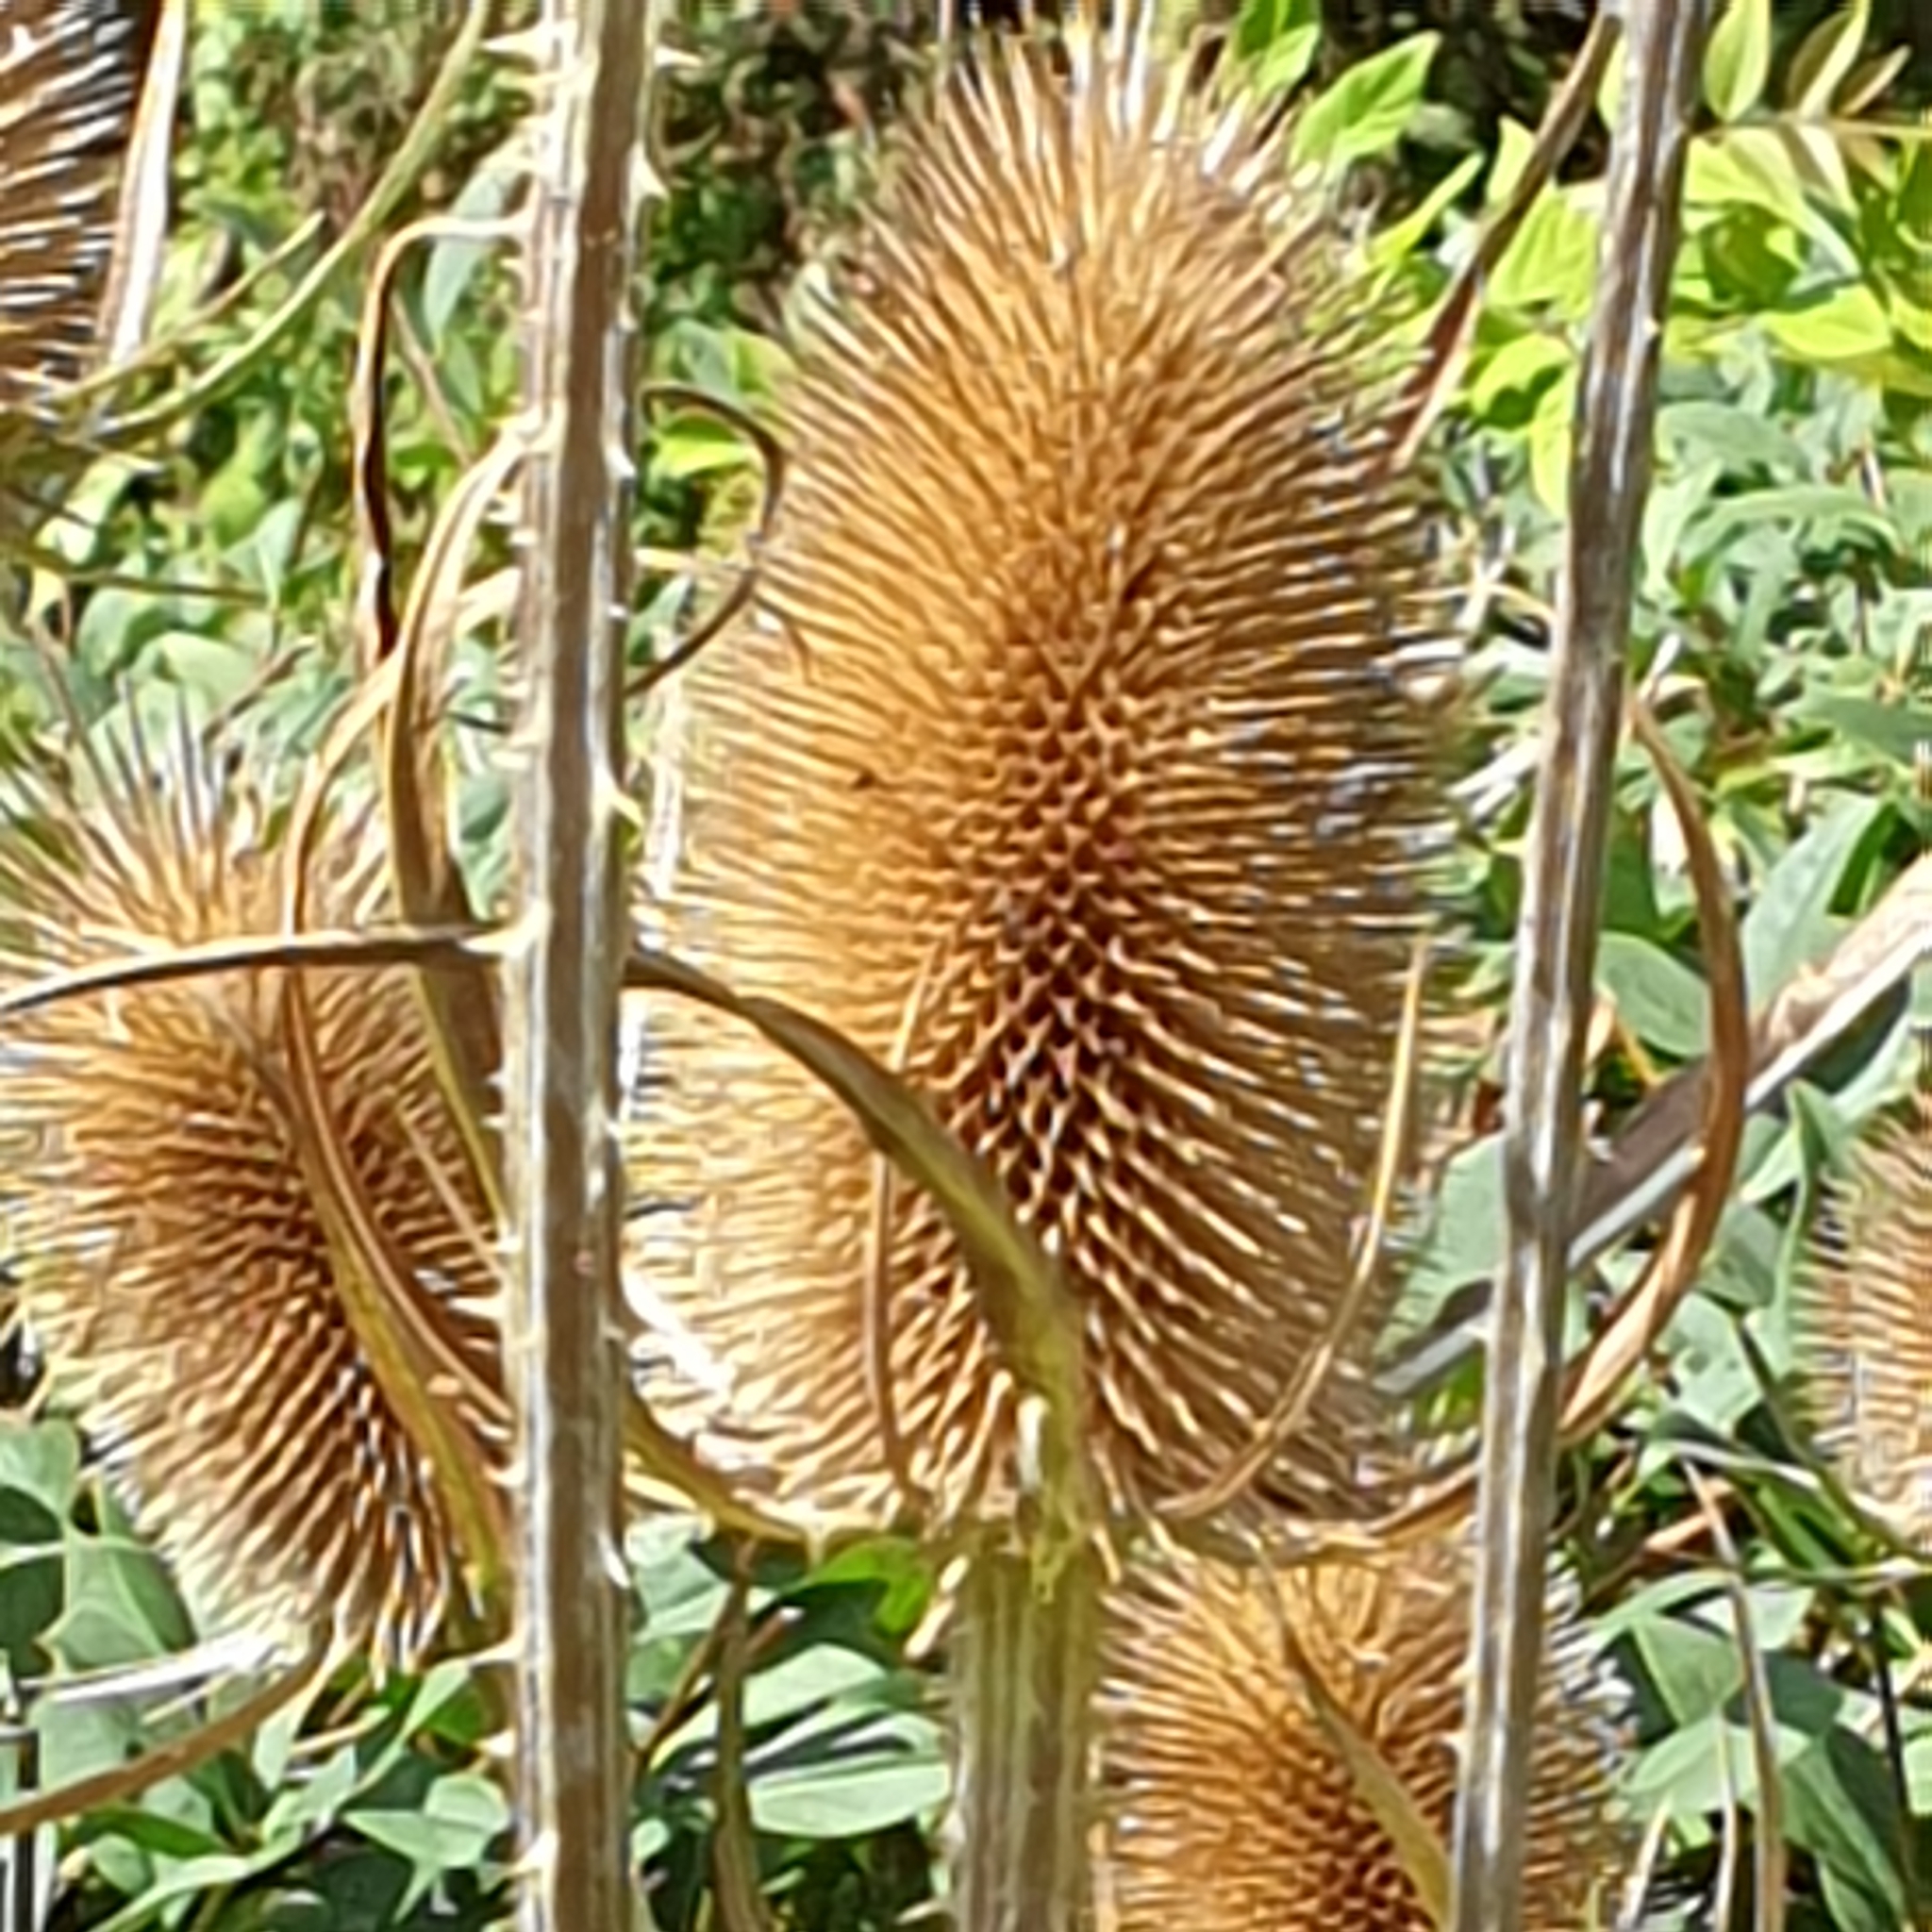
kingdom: Plantae
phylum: Tracheophyta
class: Magnoliopsida
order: Dipsacales
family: Caprifoliaceae
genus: Dipsacus
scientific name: Dipsacus fullonum
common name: Teasel
